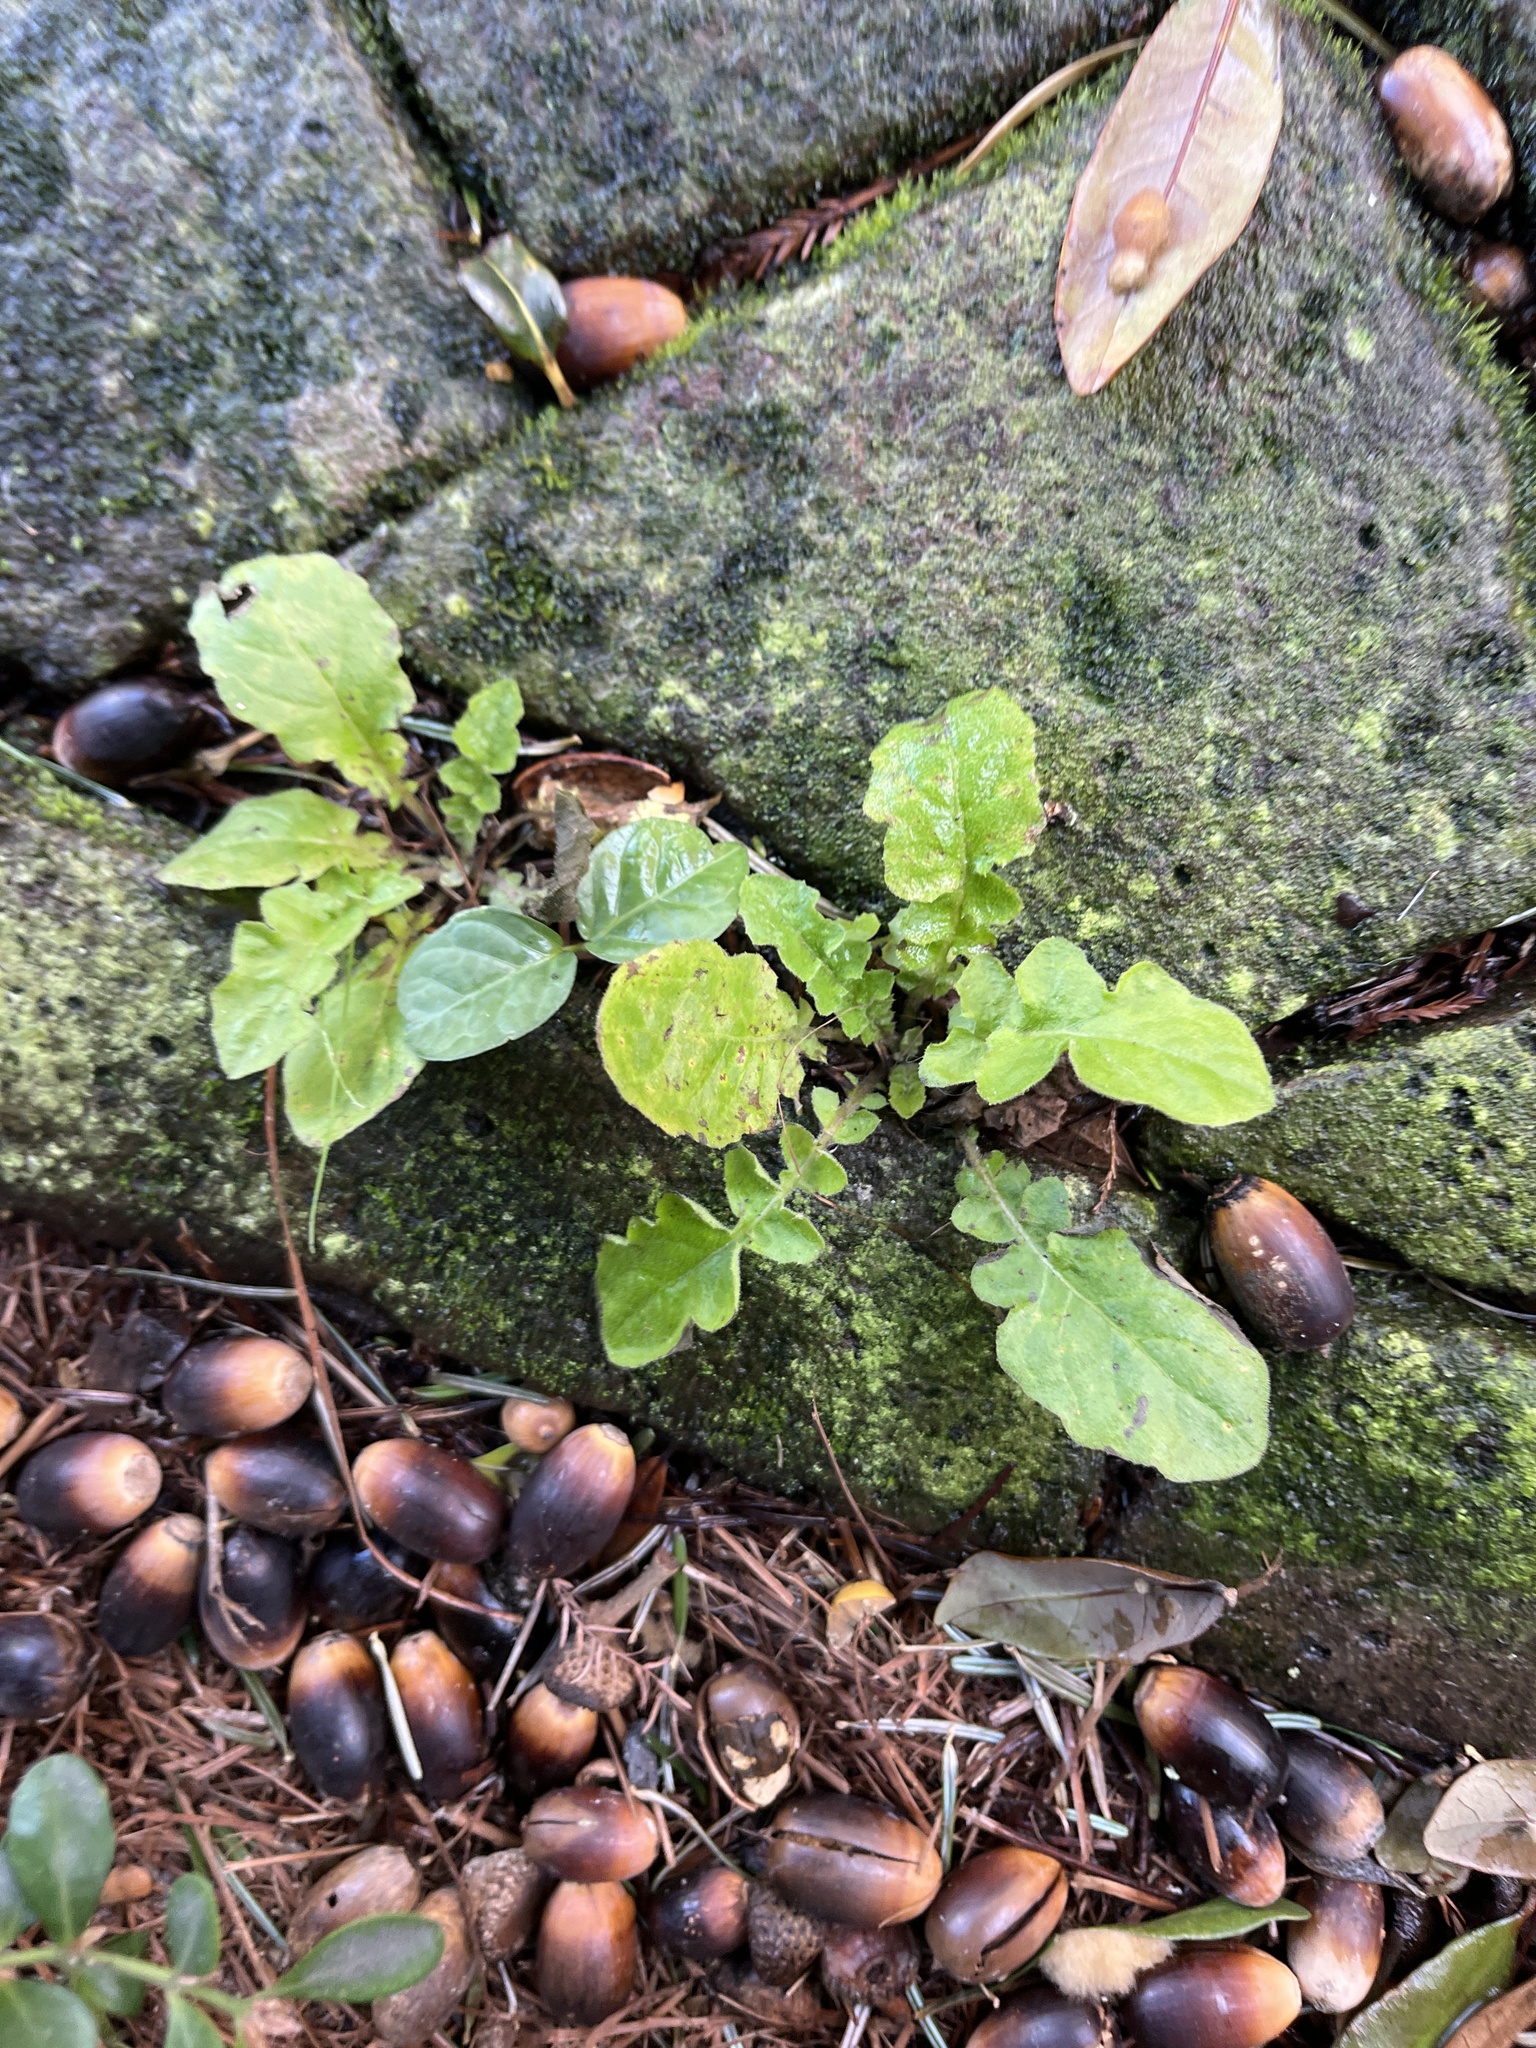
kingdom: Plantae
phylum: Tracheophyta
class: Magnoliopsida
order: Asterales
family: Asteraceae
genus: Youngia
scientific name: Youngia japonica
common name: Oriental false hawksbeard
